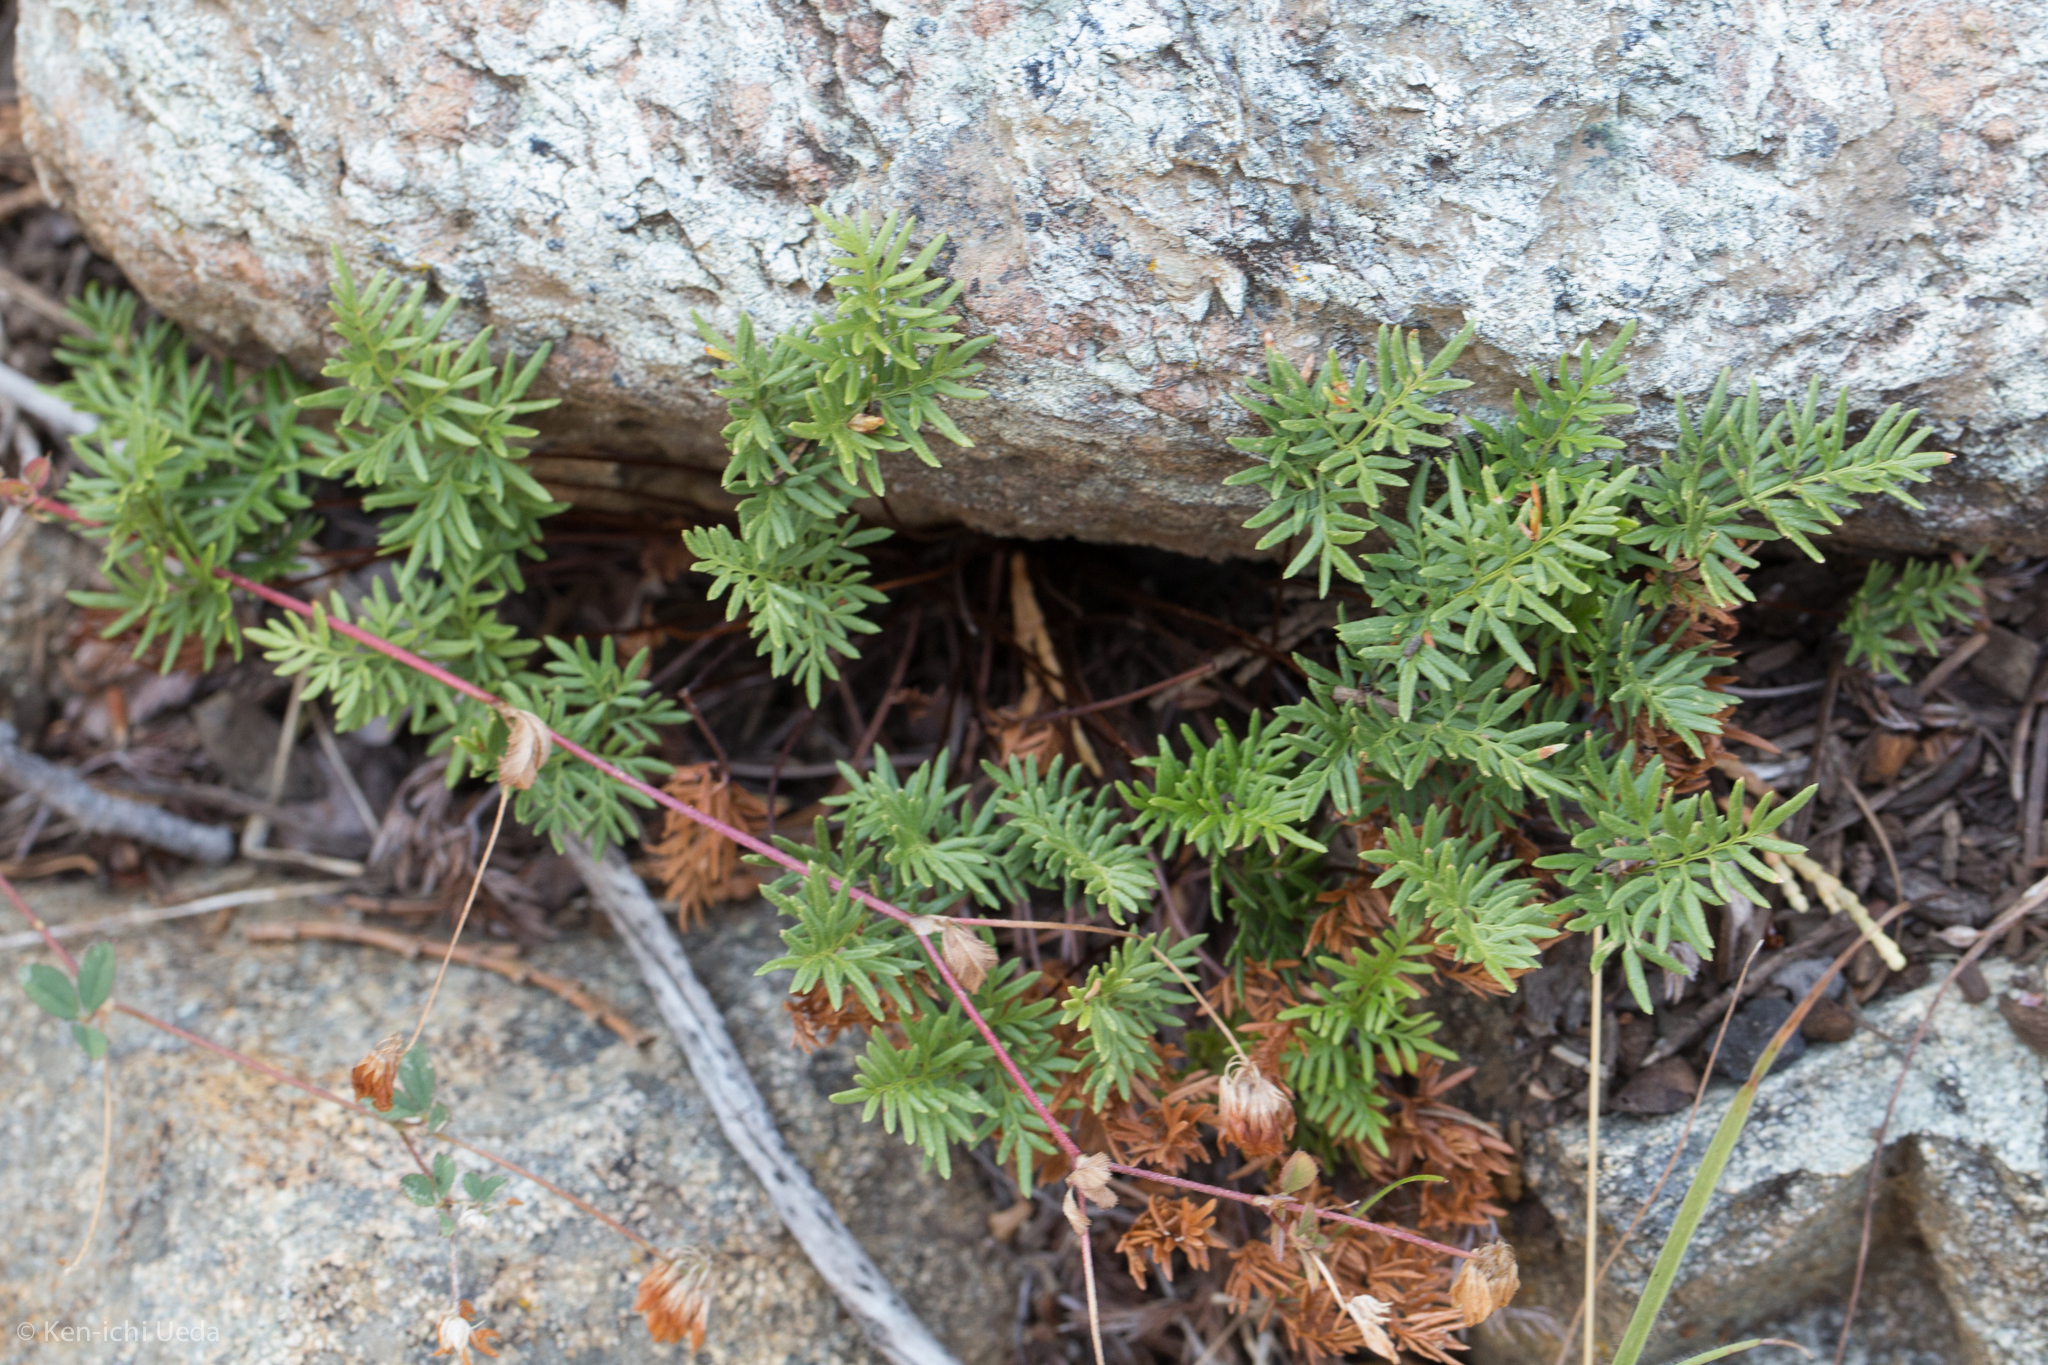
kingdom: Plantae
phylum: Tracheophyta
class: Polypodiopsida
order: Polypodiales
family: Pteridaceae
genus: Aspidotis
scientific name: Aspidotis densa
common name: Indian's dream
